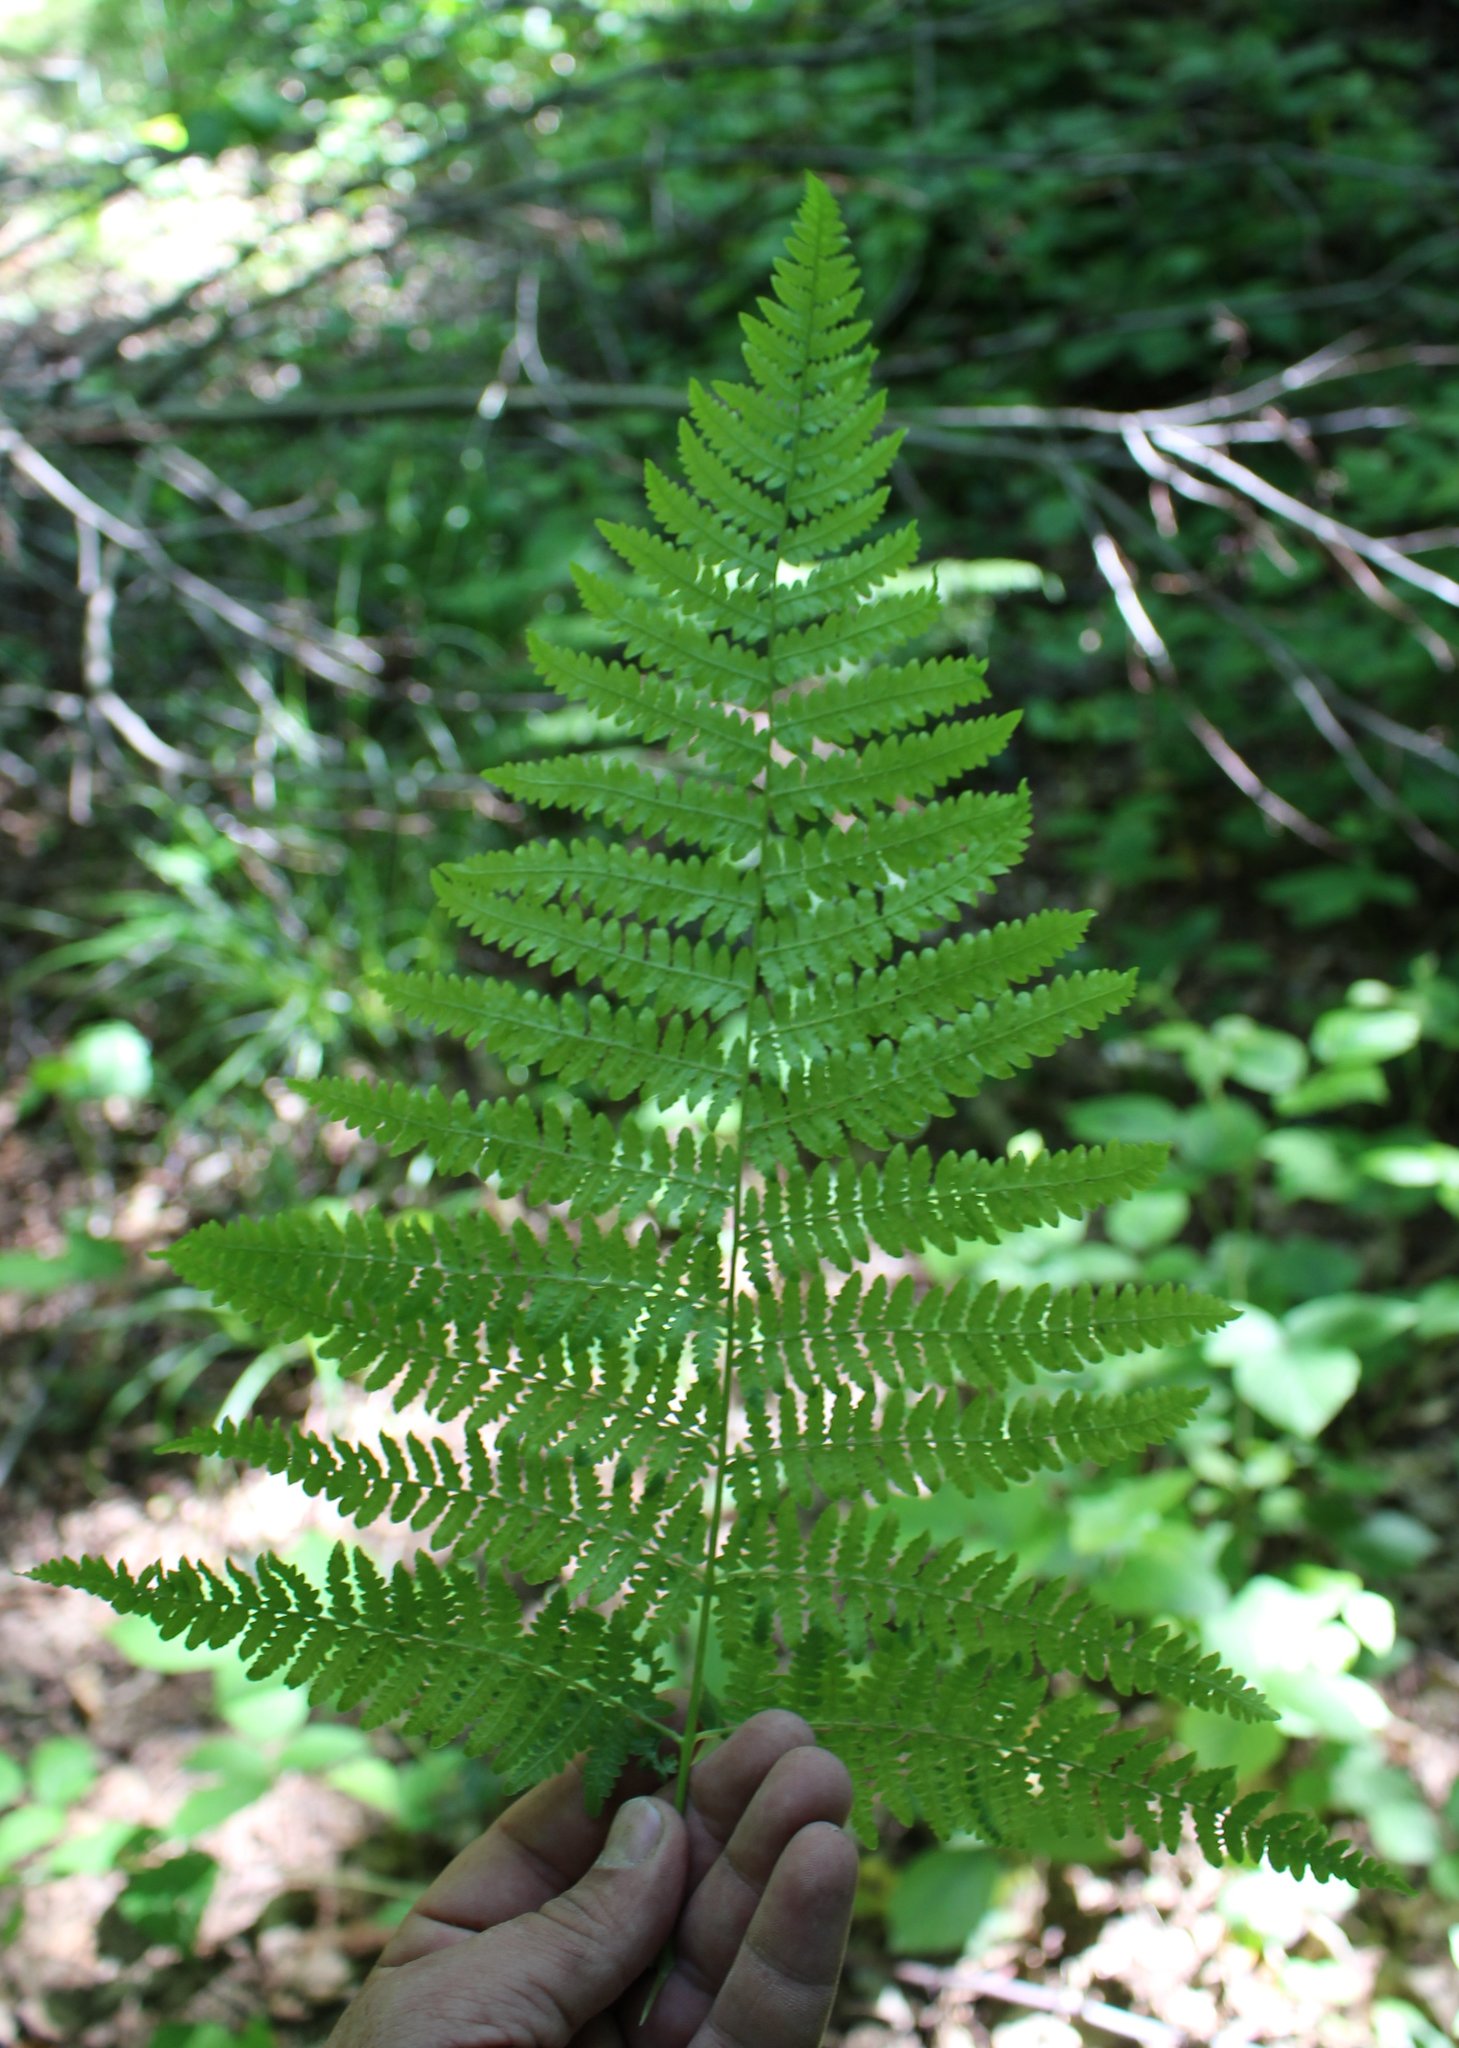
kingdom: Plantae
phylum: Tracheophyta
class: Polypodiopsida
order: Polypodiales
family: Dennstaedtiaceae
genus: Pteridium
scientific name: Pteridium tauricum
